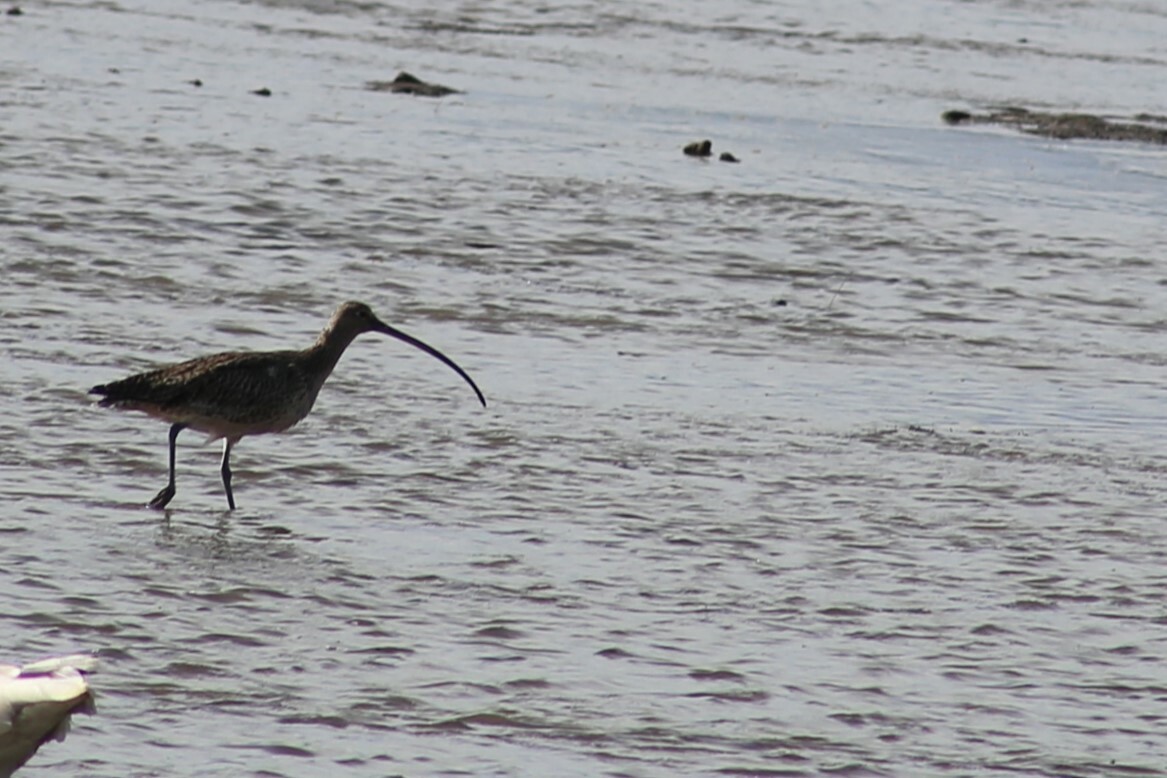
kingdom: Animalia
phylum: Chordata
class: Aves
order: Charadriiformes
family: Scolopacidae
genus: Numenius
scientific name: Numenius madagascariensis
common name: Far eastern curlew
